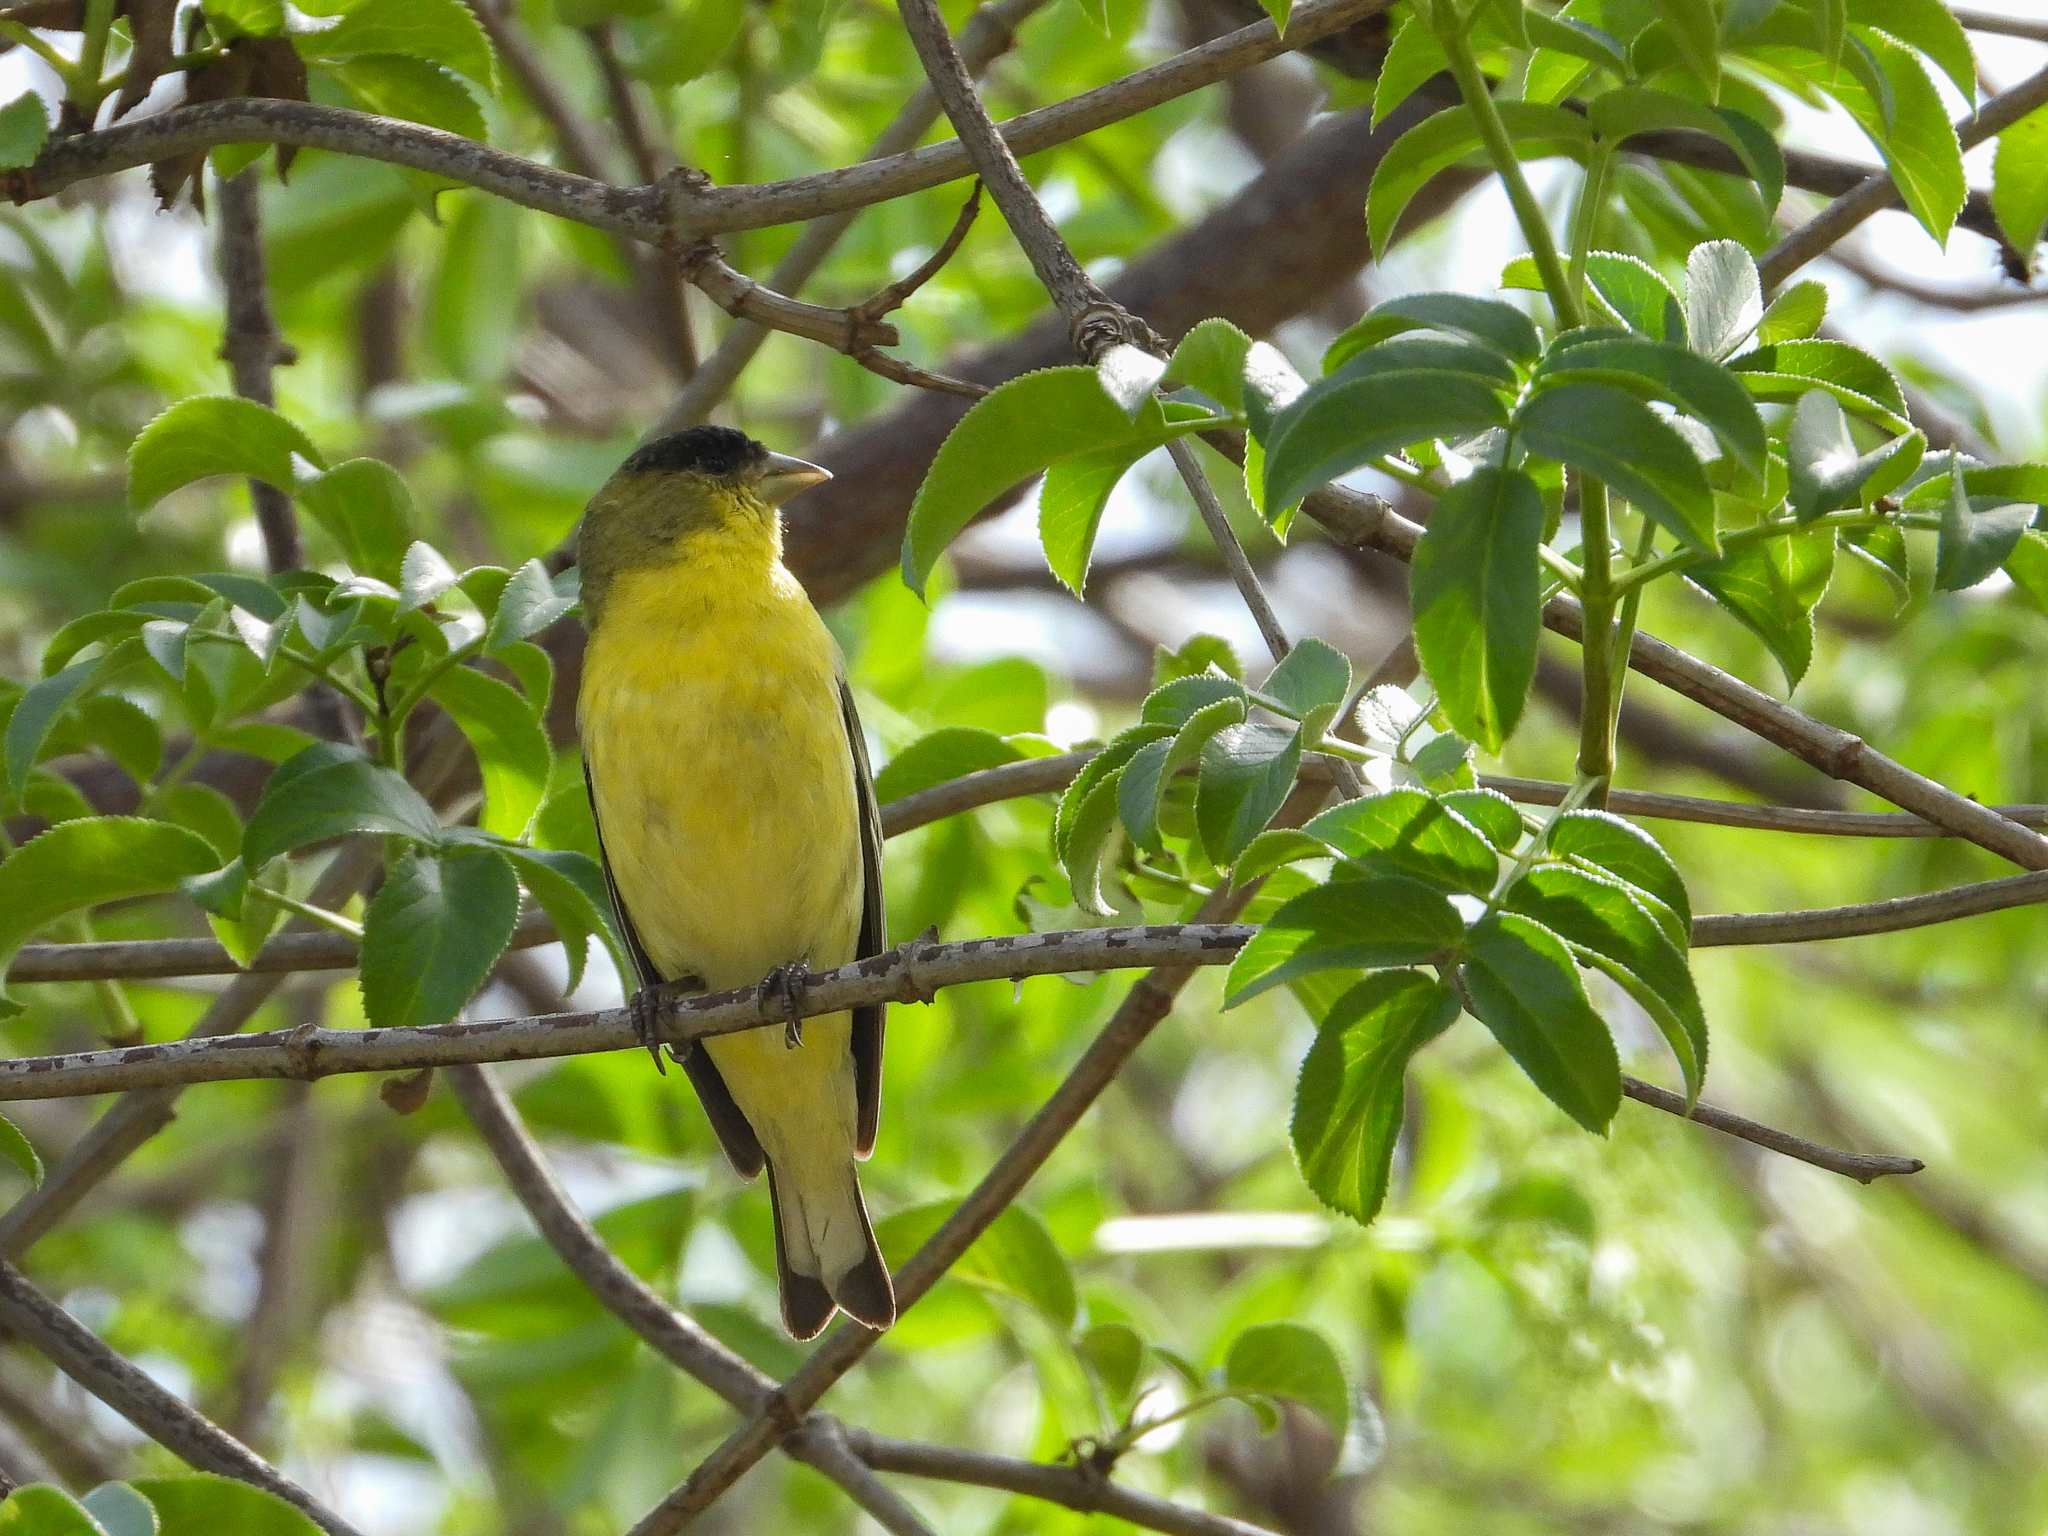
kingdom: Animalia
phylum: Chordata
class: Aves
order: Passeriformes
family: Fringillidae
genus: Spinus
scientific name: Spinus psaltria
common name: Lesser goldfinch
